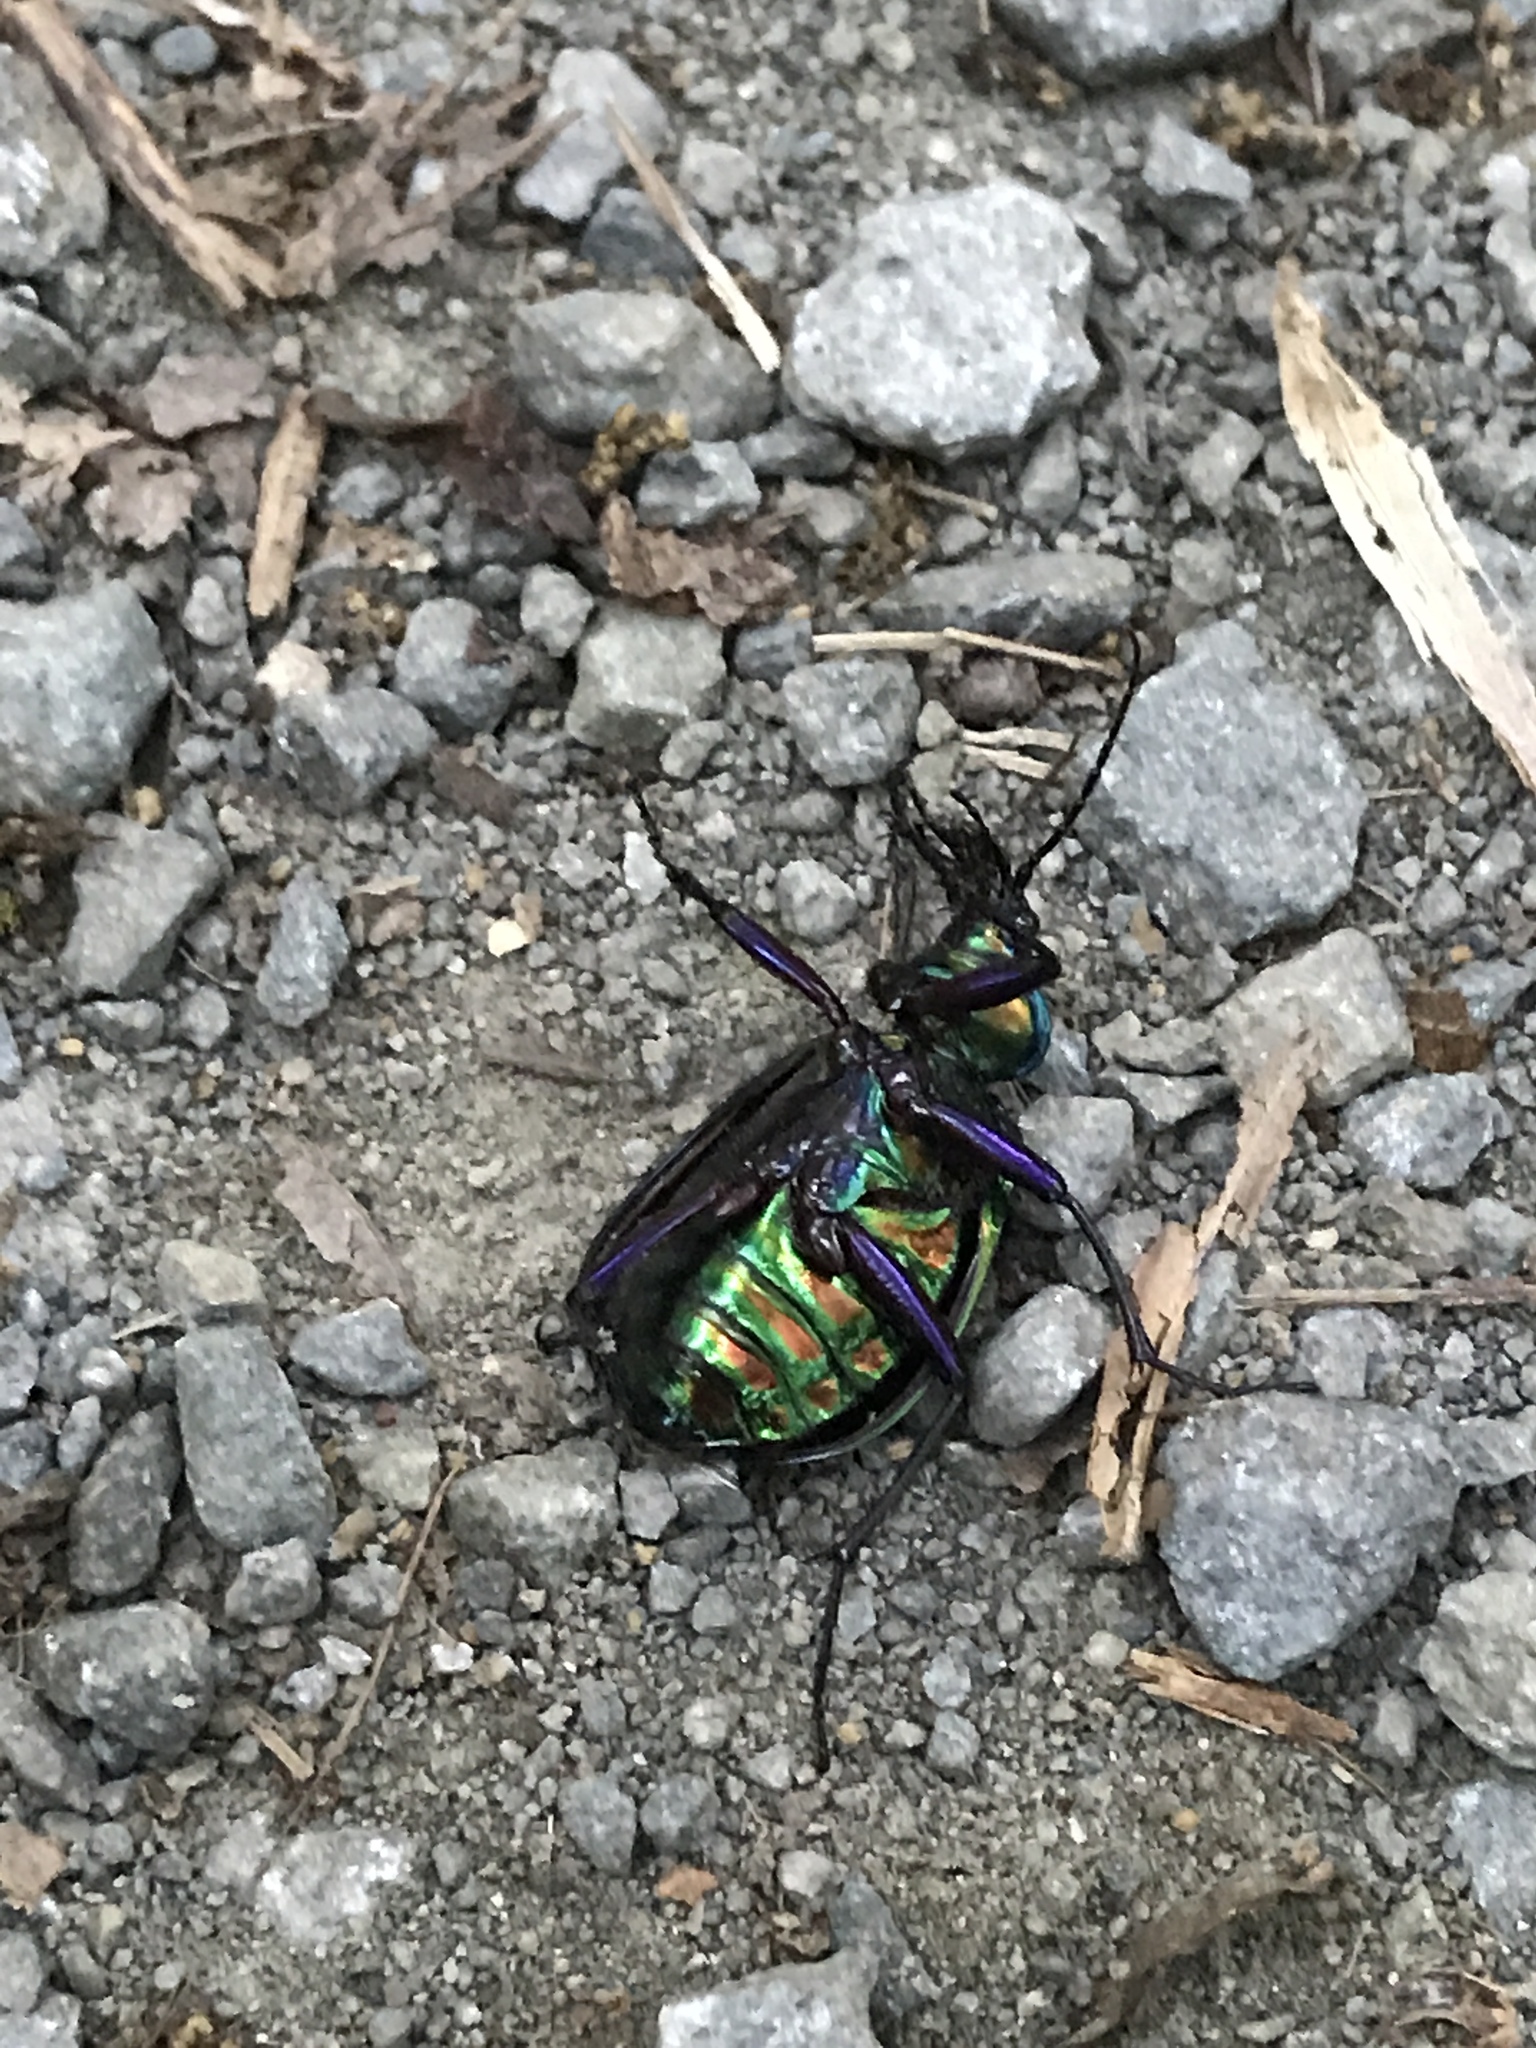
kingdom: Animalia
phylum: Arthropoda
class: Insecta
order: Coleoptera
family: Carabidae
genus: Calosoma
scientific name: Calosoma scrutator
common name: Fiery searcher beetle
